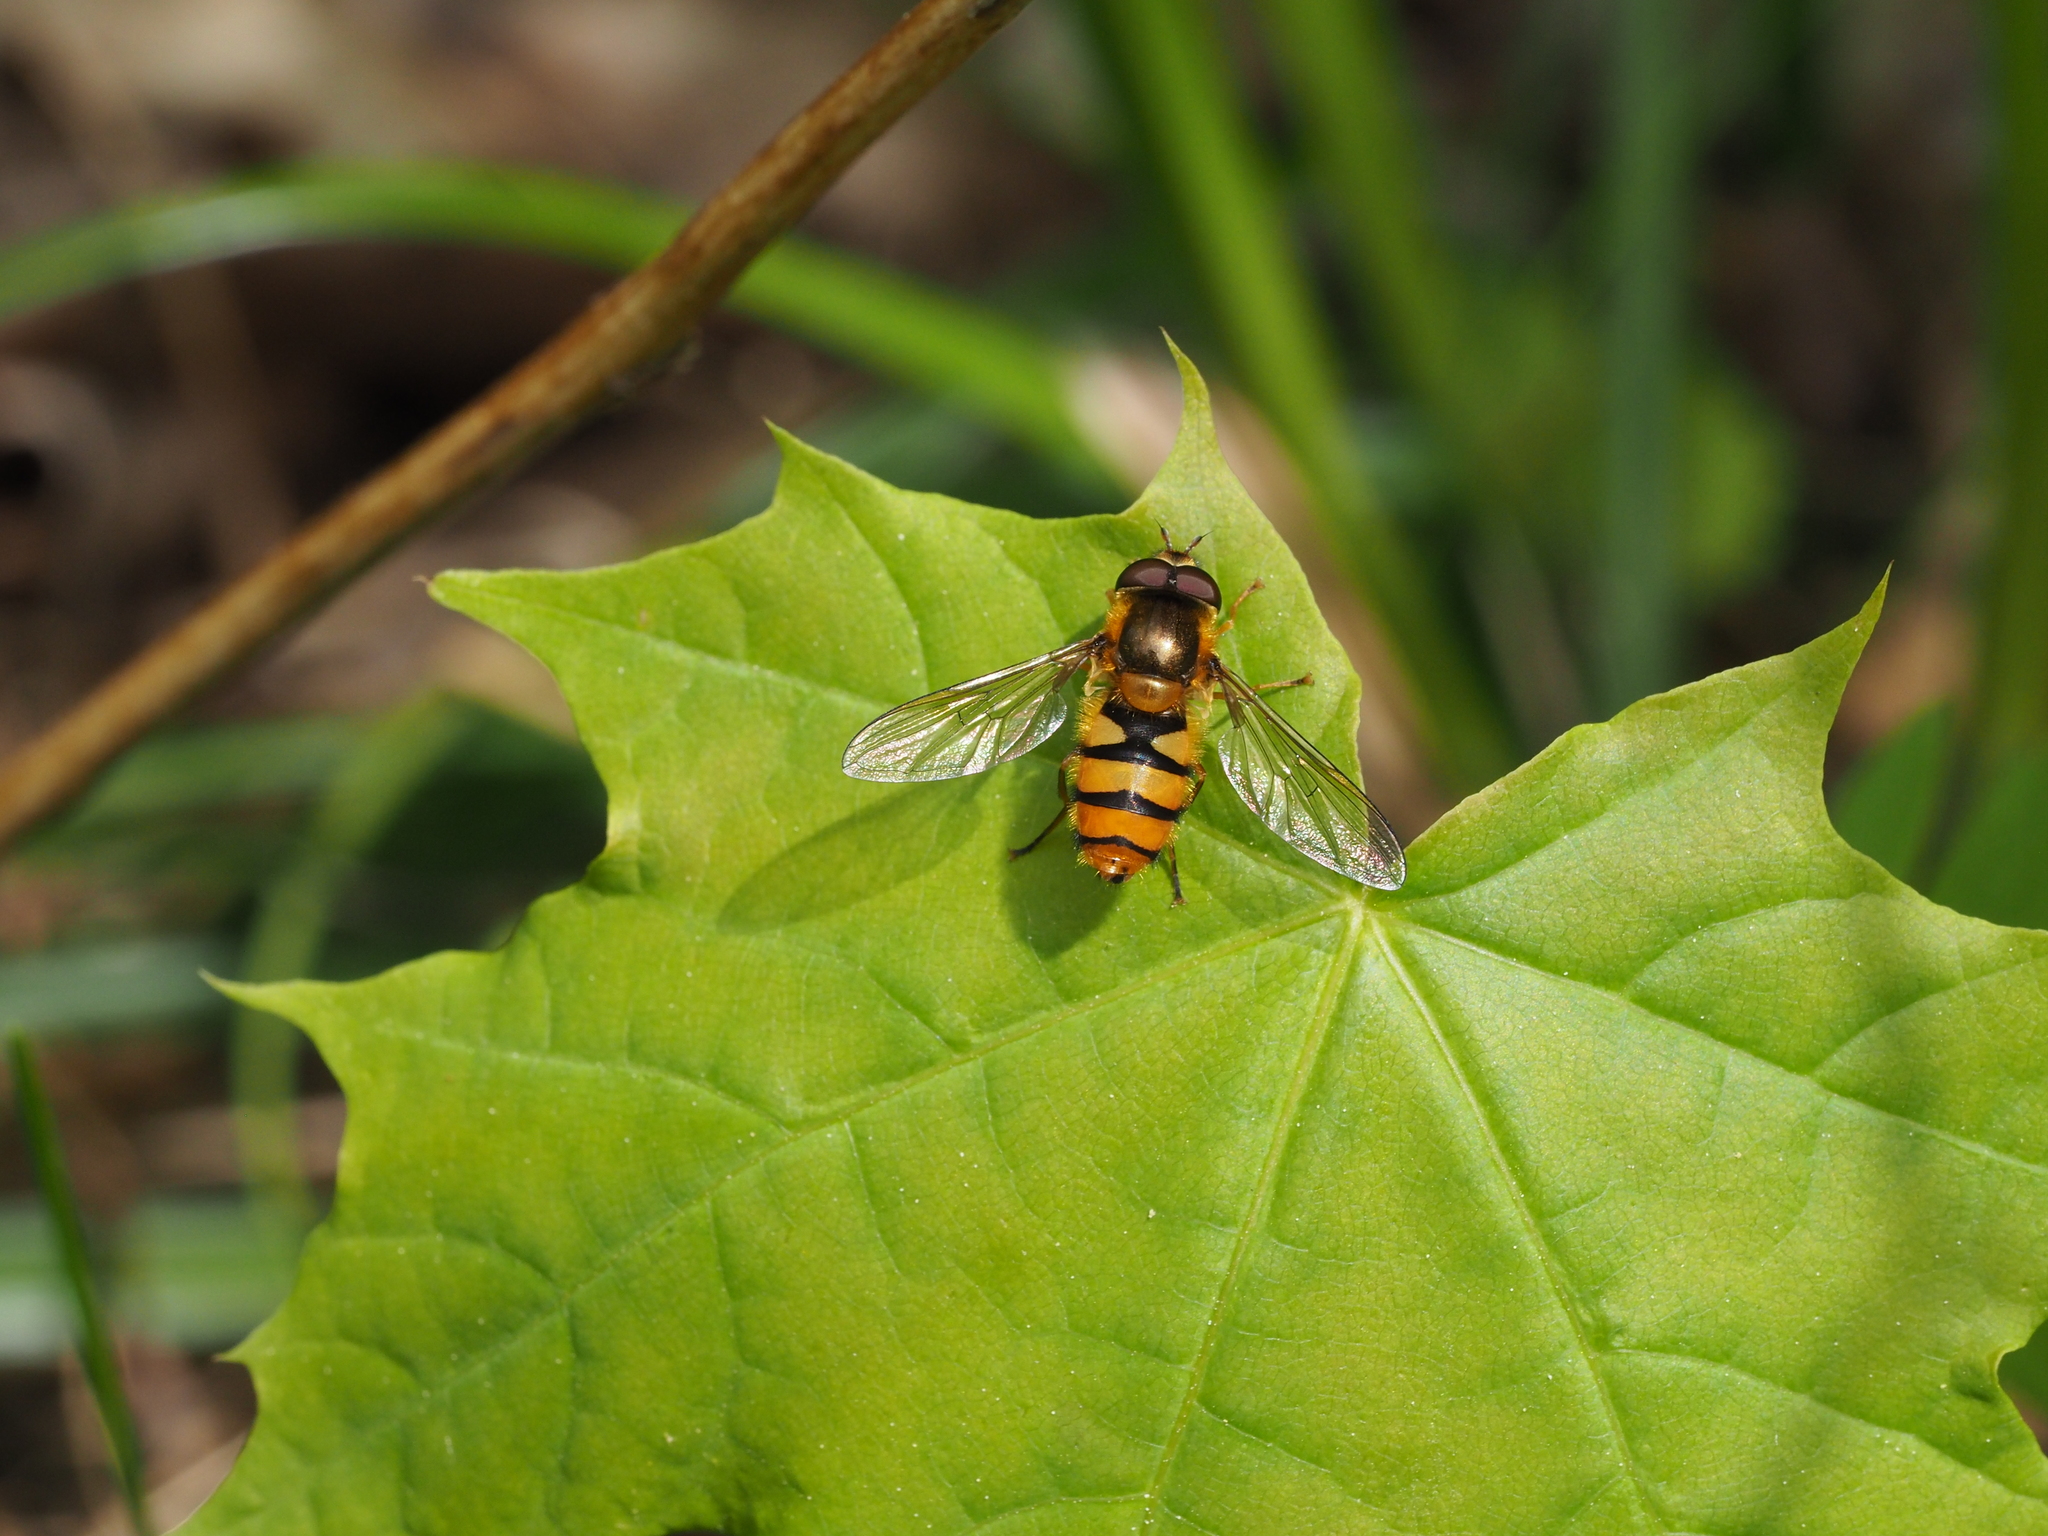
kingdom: Animalia
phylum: Arthropoda
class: Insecta
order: Diptera
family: Syrphidae
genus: Epistrophe
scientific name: Epistrophe melanostoma
